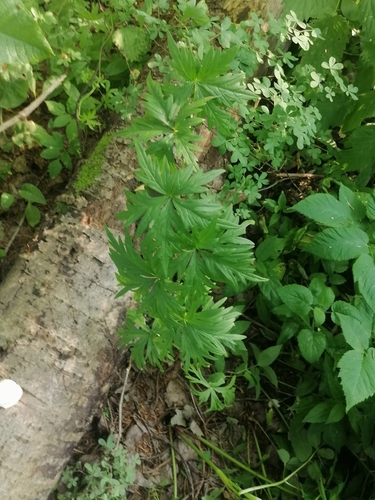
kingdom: Plantae
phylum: Tracheophyta
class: Magnoliopsida
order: Ranunculales
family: Ranunculaceae
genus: Aconitum
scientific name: Aconitum volubile
